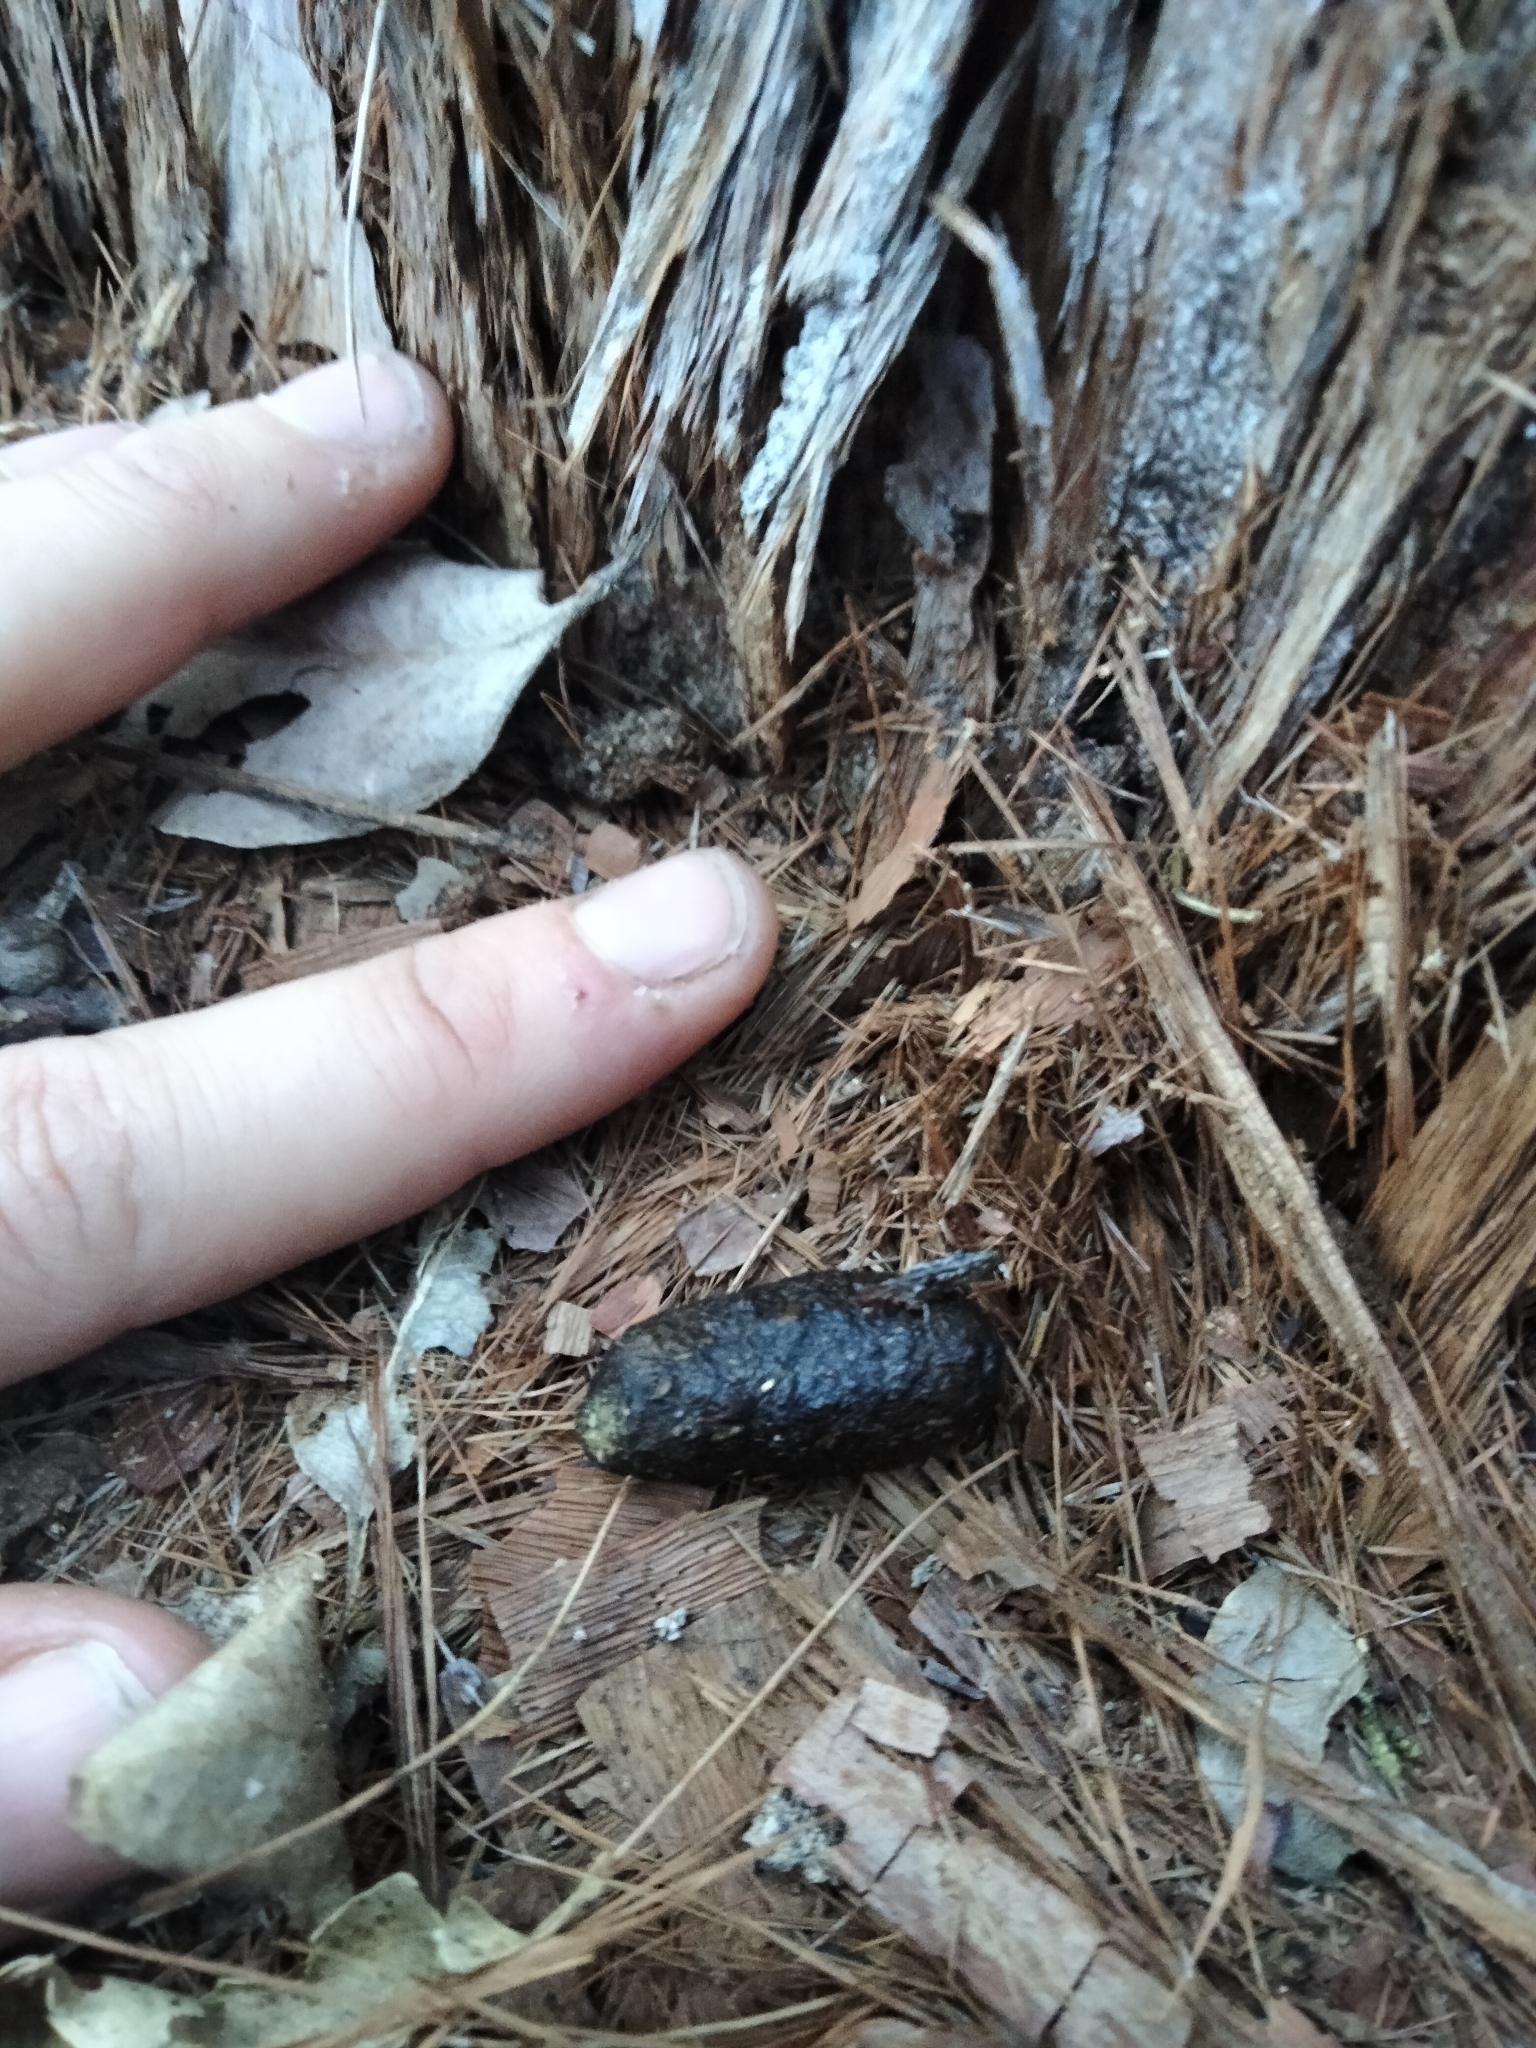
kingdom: Animalia
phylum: Chordata
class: Mammalia
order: Diprotodontia
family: Phascolarctidae
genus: Phascolarctos
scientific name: Phascolarctos cinereus
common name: Koala
